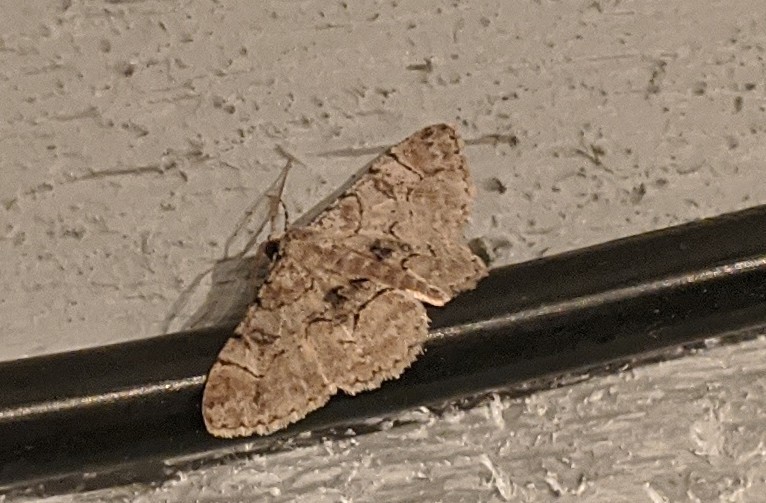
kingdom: Animalia
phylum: Arthropoda
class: Insecta
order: Lepidoptera
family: Geometridae
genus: Iridopsis
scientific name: Iridopsis larvaria
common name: Bent-line gray
